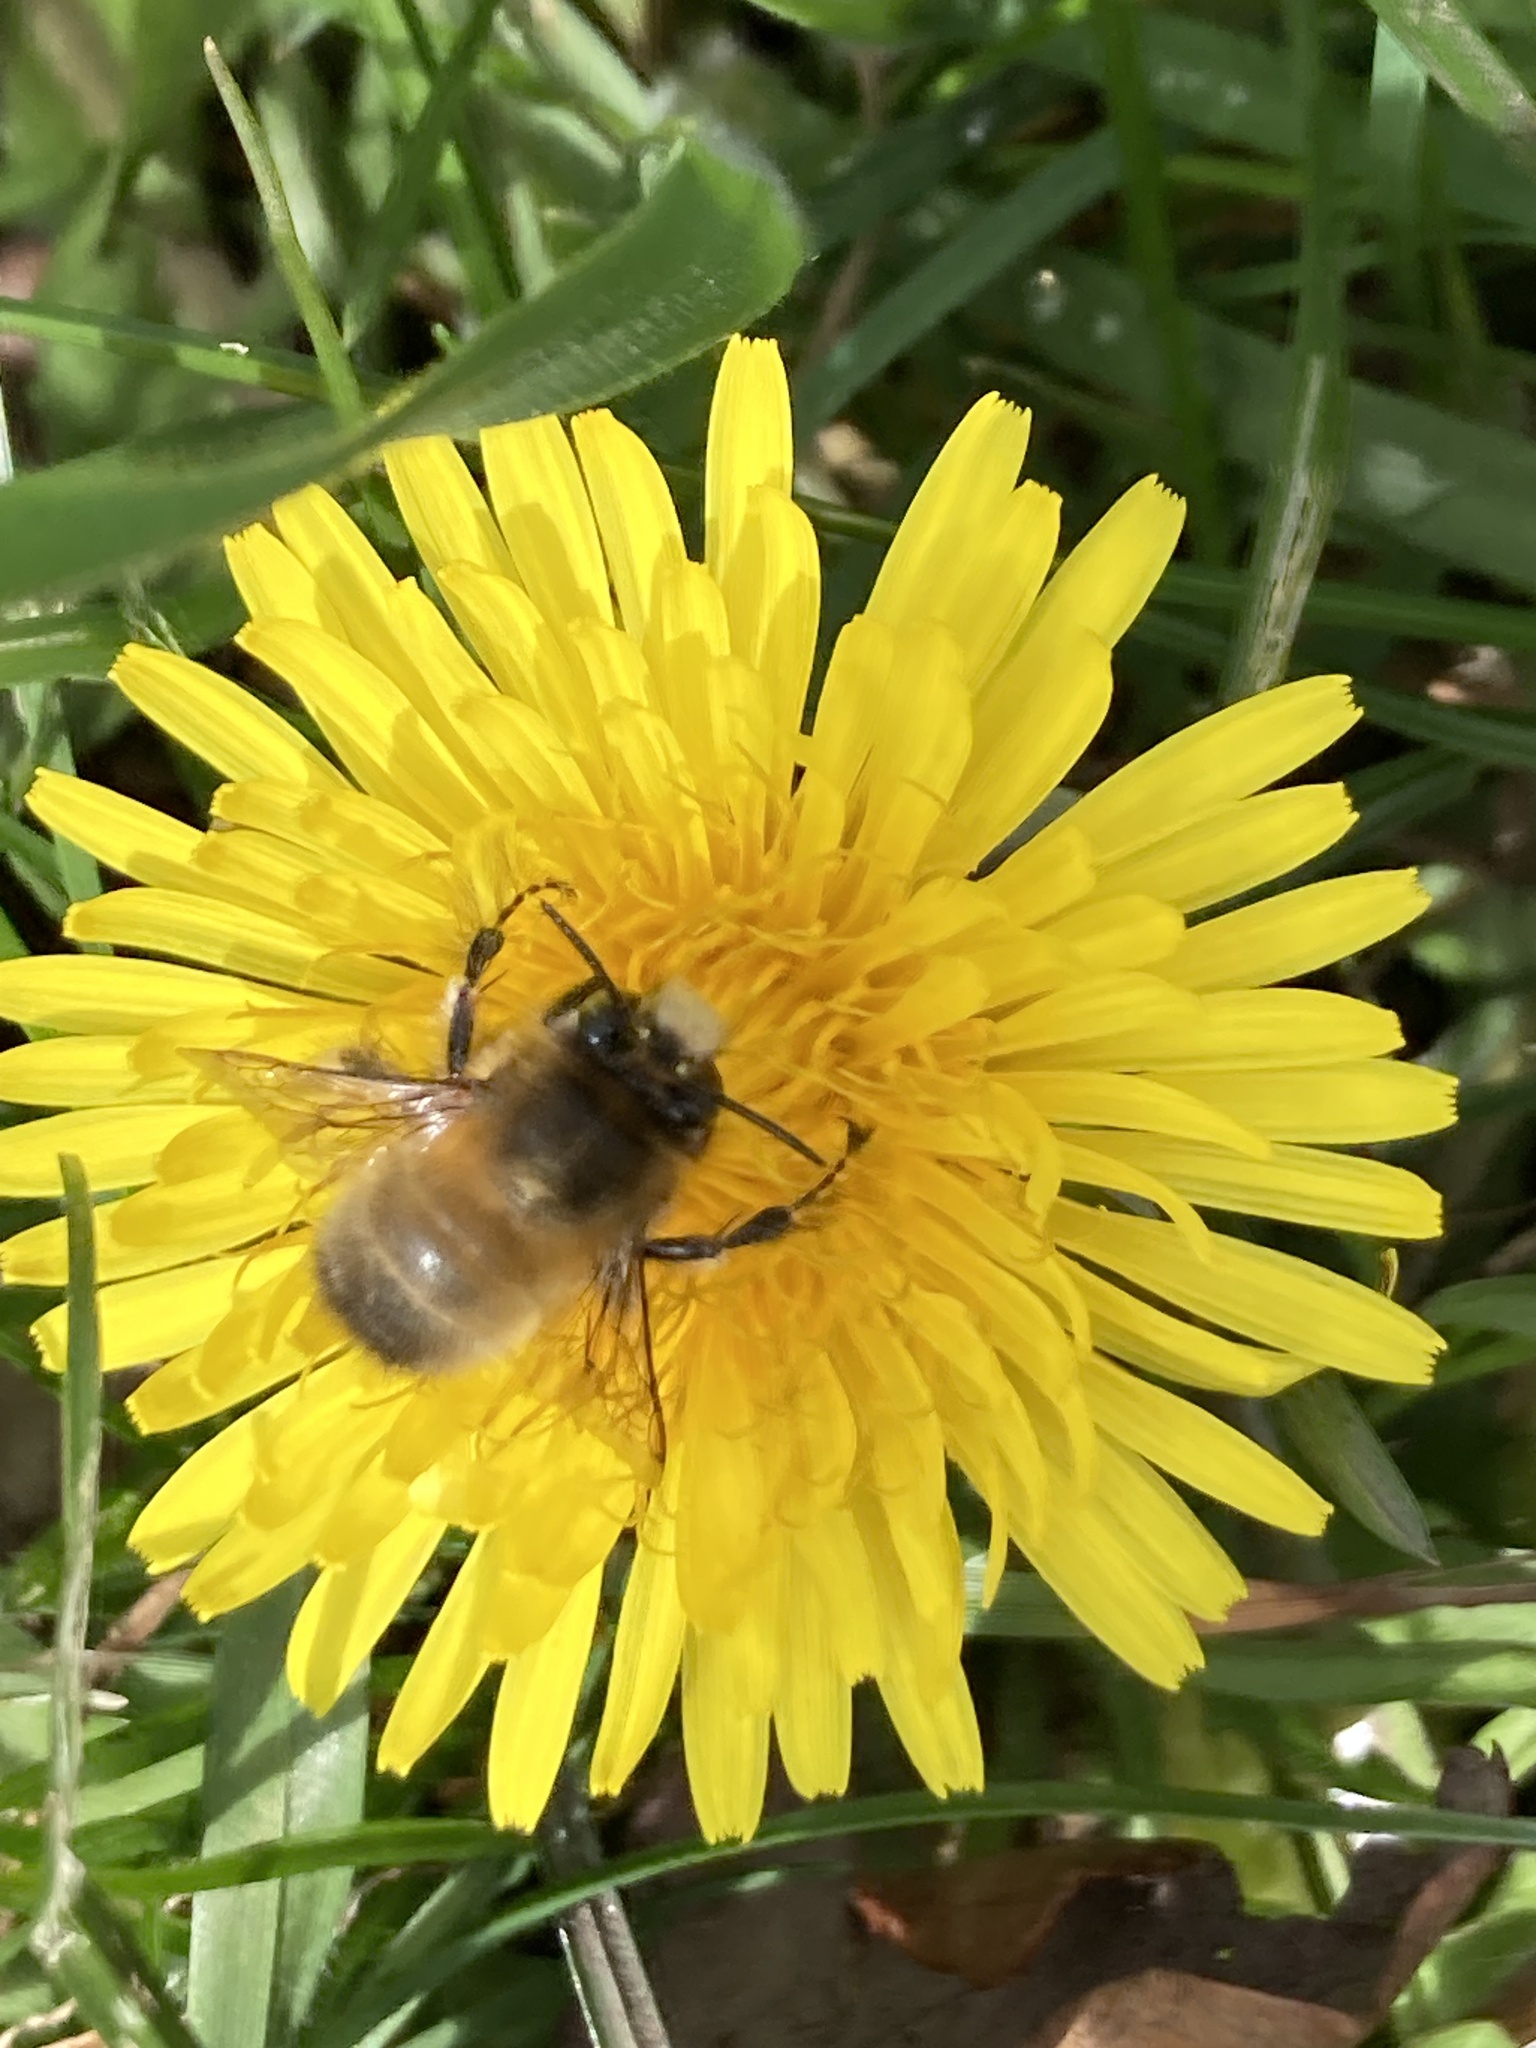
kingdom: Animalia
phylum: Arthropoda
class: Insecta
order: Hymenoptera
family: Apidae
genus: Anthophora
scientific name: Anthophora plumipes
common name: Hairy-footed flower bee
